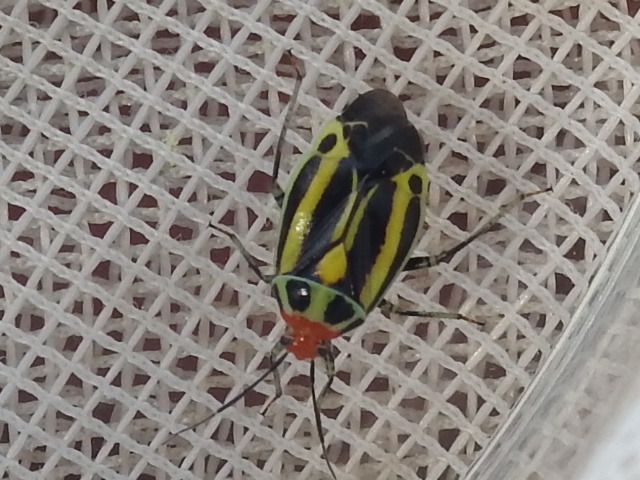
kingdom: Animalia
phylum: Arthropoda
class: Insecta
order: Hemiptera
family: Miridae
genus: Poecilocapsus
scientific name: Poecilocapsus lineatus
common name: Four-lined plant bug
